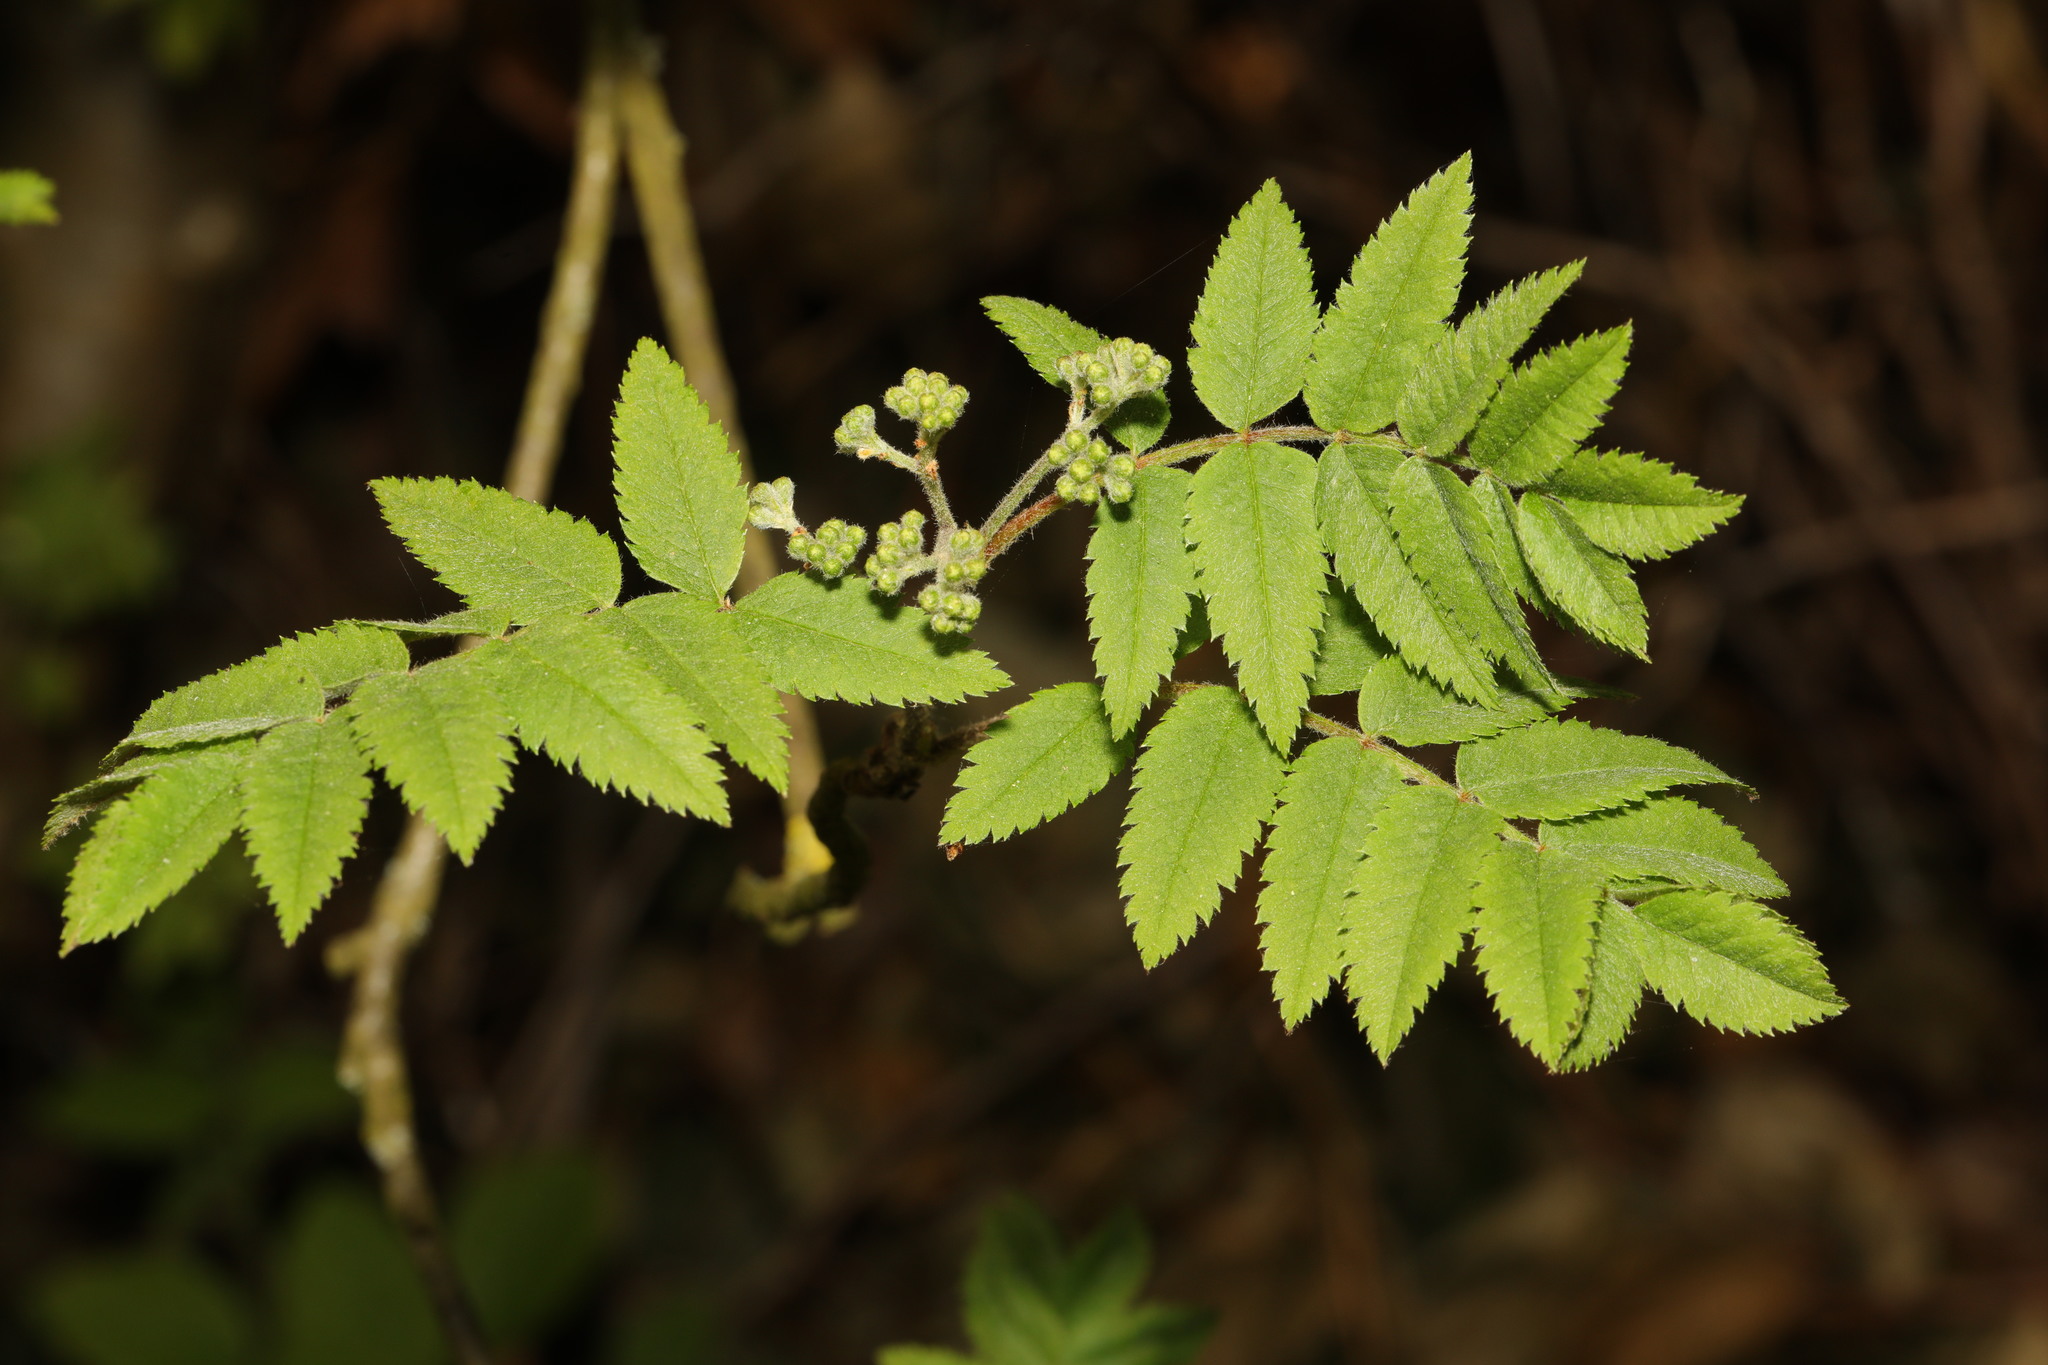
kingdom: Plantae
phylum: Tracheophyta
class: Magnoliopsida
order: Rosales
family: Rosaceae
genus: Sorbus
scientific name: Sorbus aucuparia
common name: Rowan
